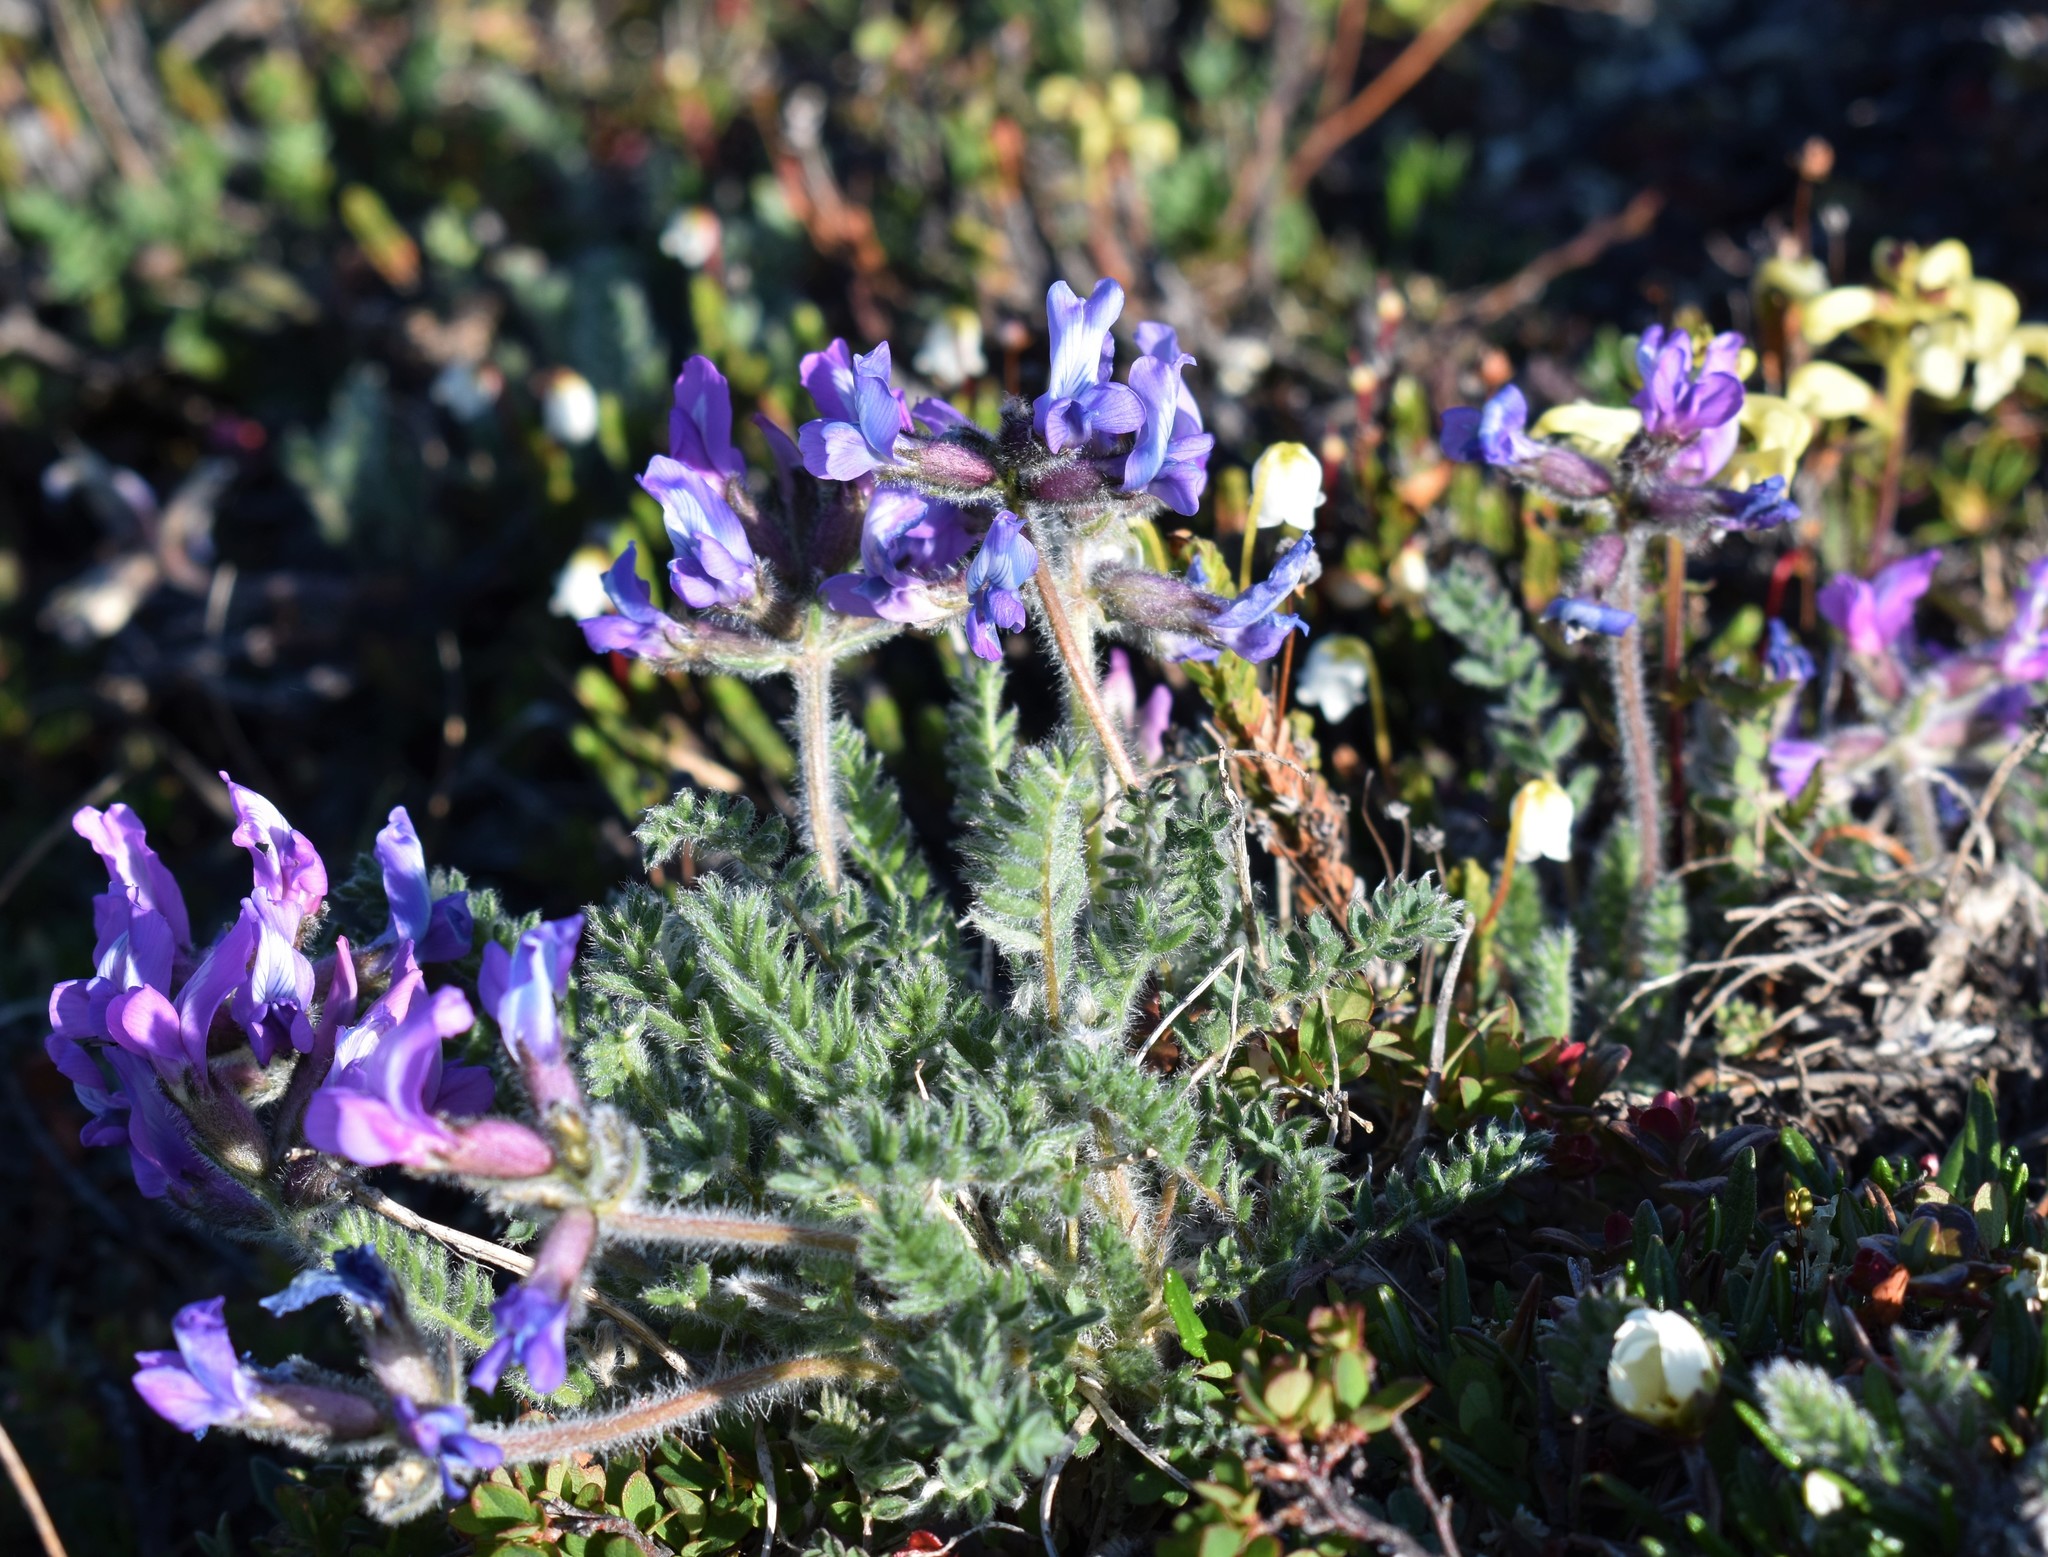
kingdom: Plantae
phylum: Tracheophyta
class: Magnoliopsida
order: Fabales
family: Fabaceae
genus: Oxytropis
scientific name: Oxytropis arctica
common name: Arctic locoweed
